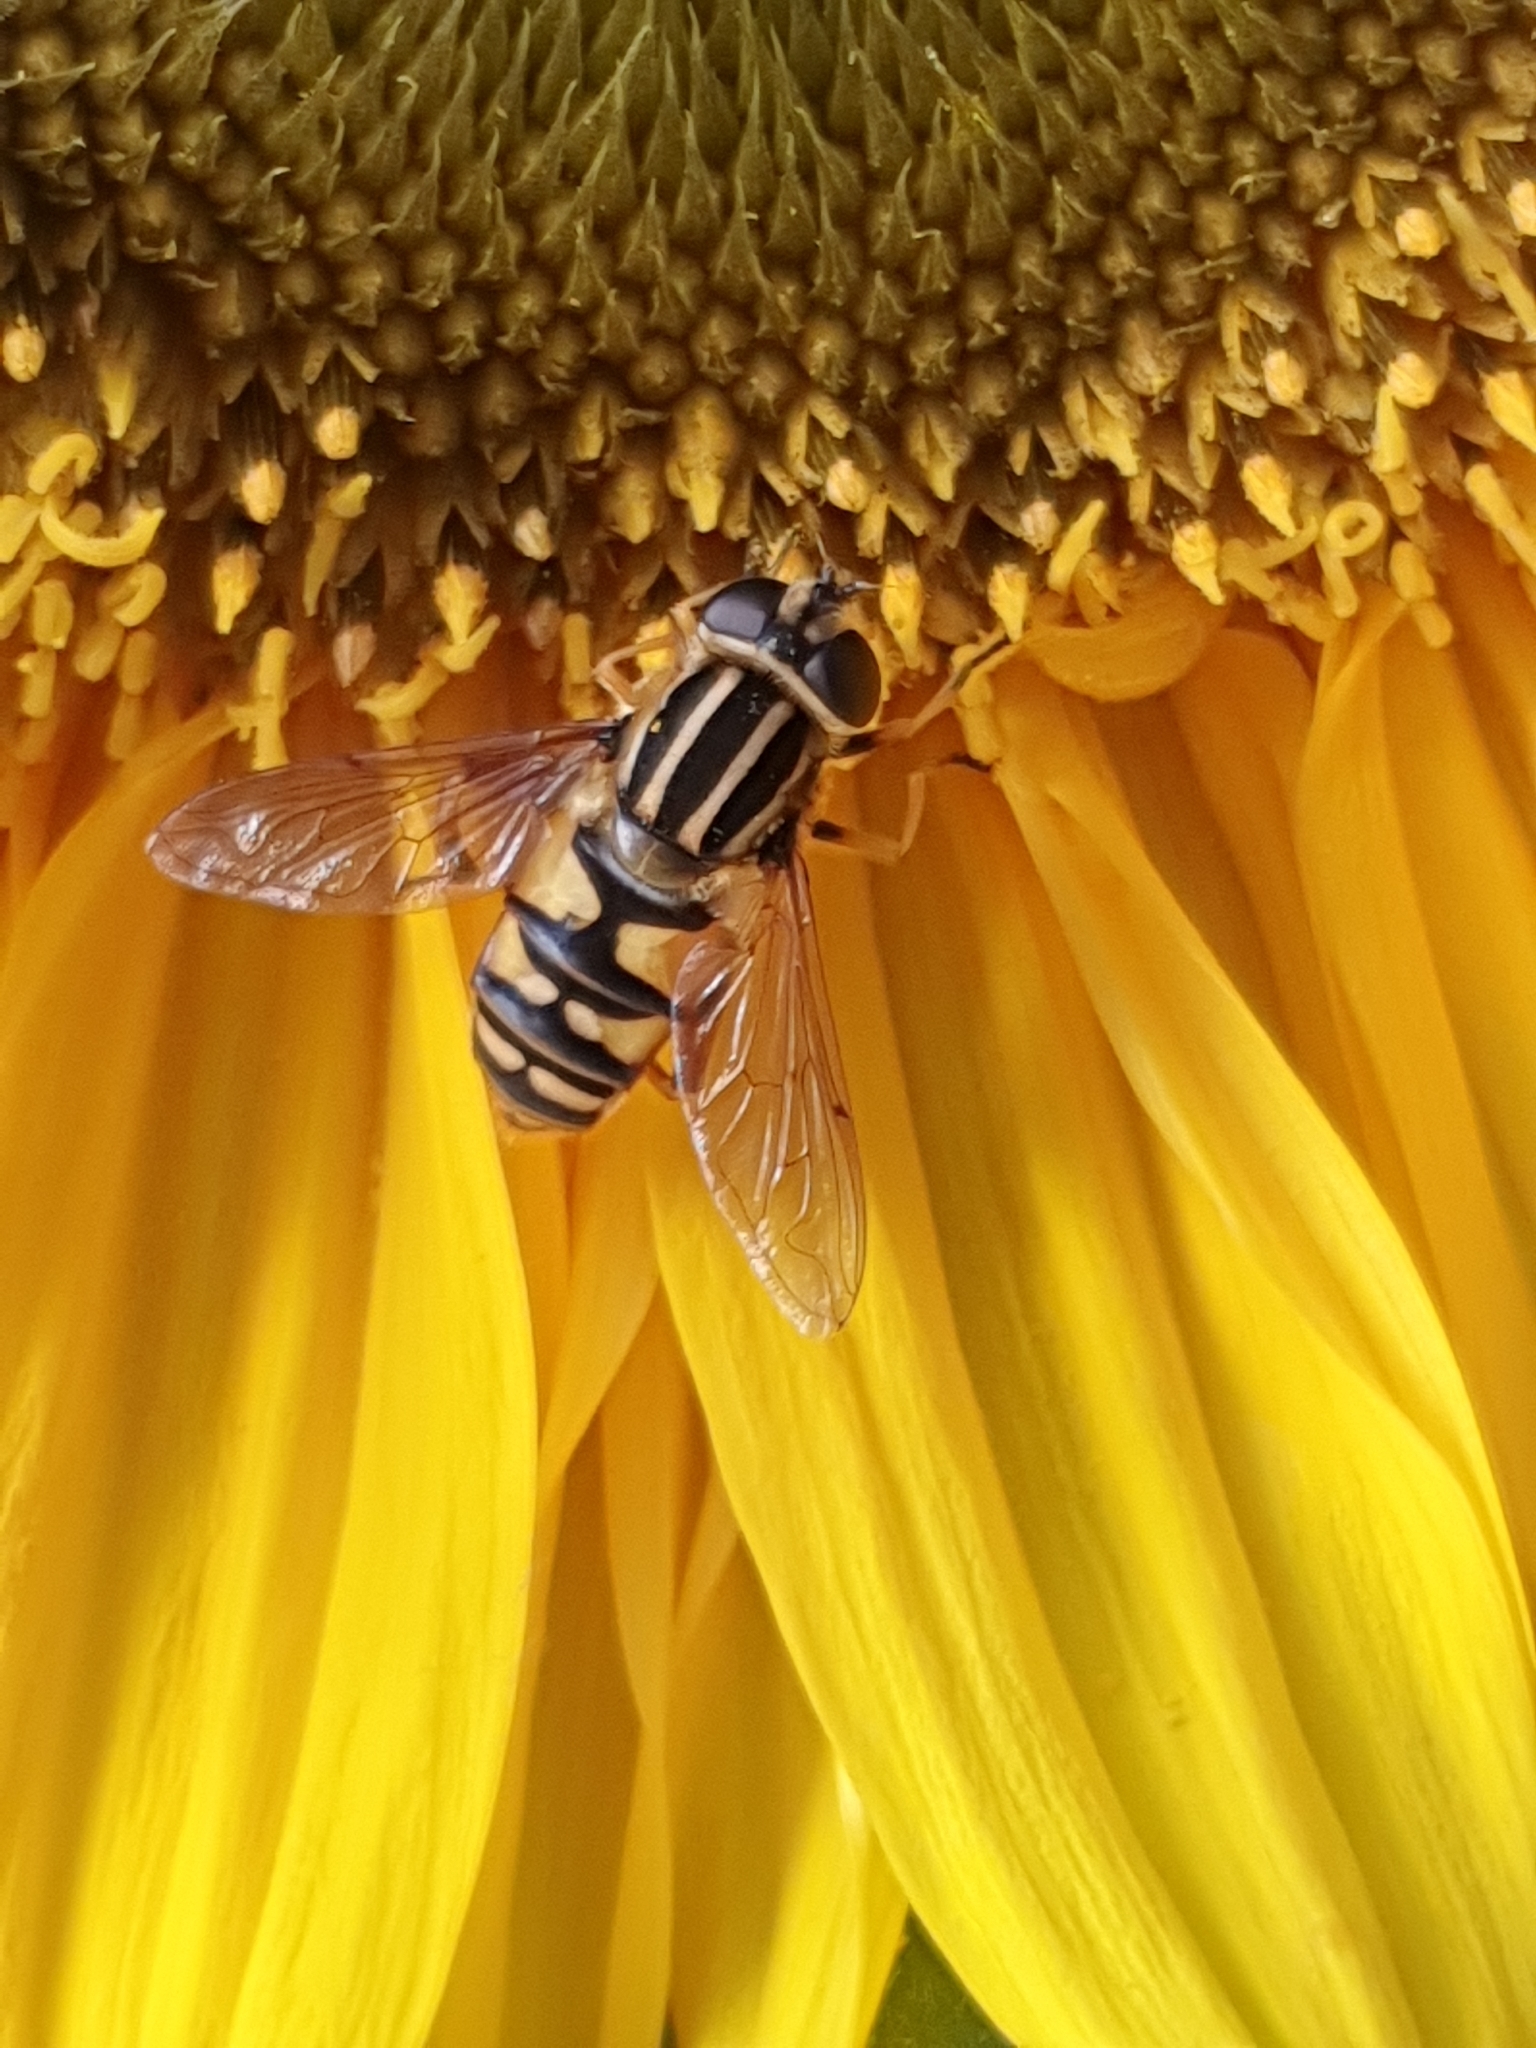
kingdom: Animalia
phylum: Arthropoda
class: Insecta
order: Diptera
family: Syrphidae
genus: Helophilus
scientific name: Helophilus pendulus
